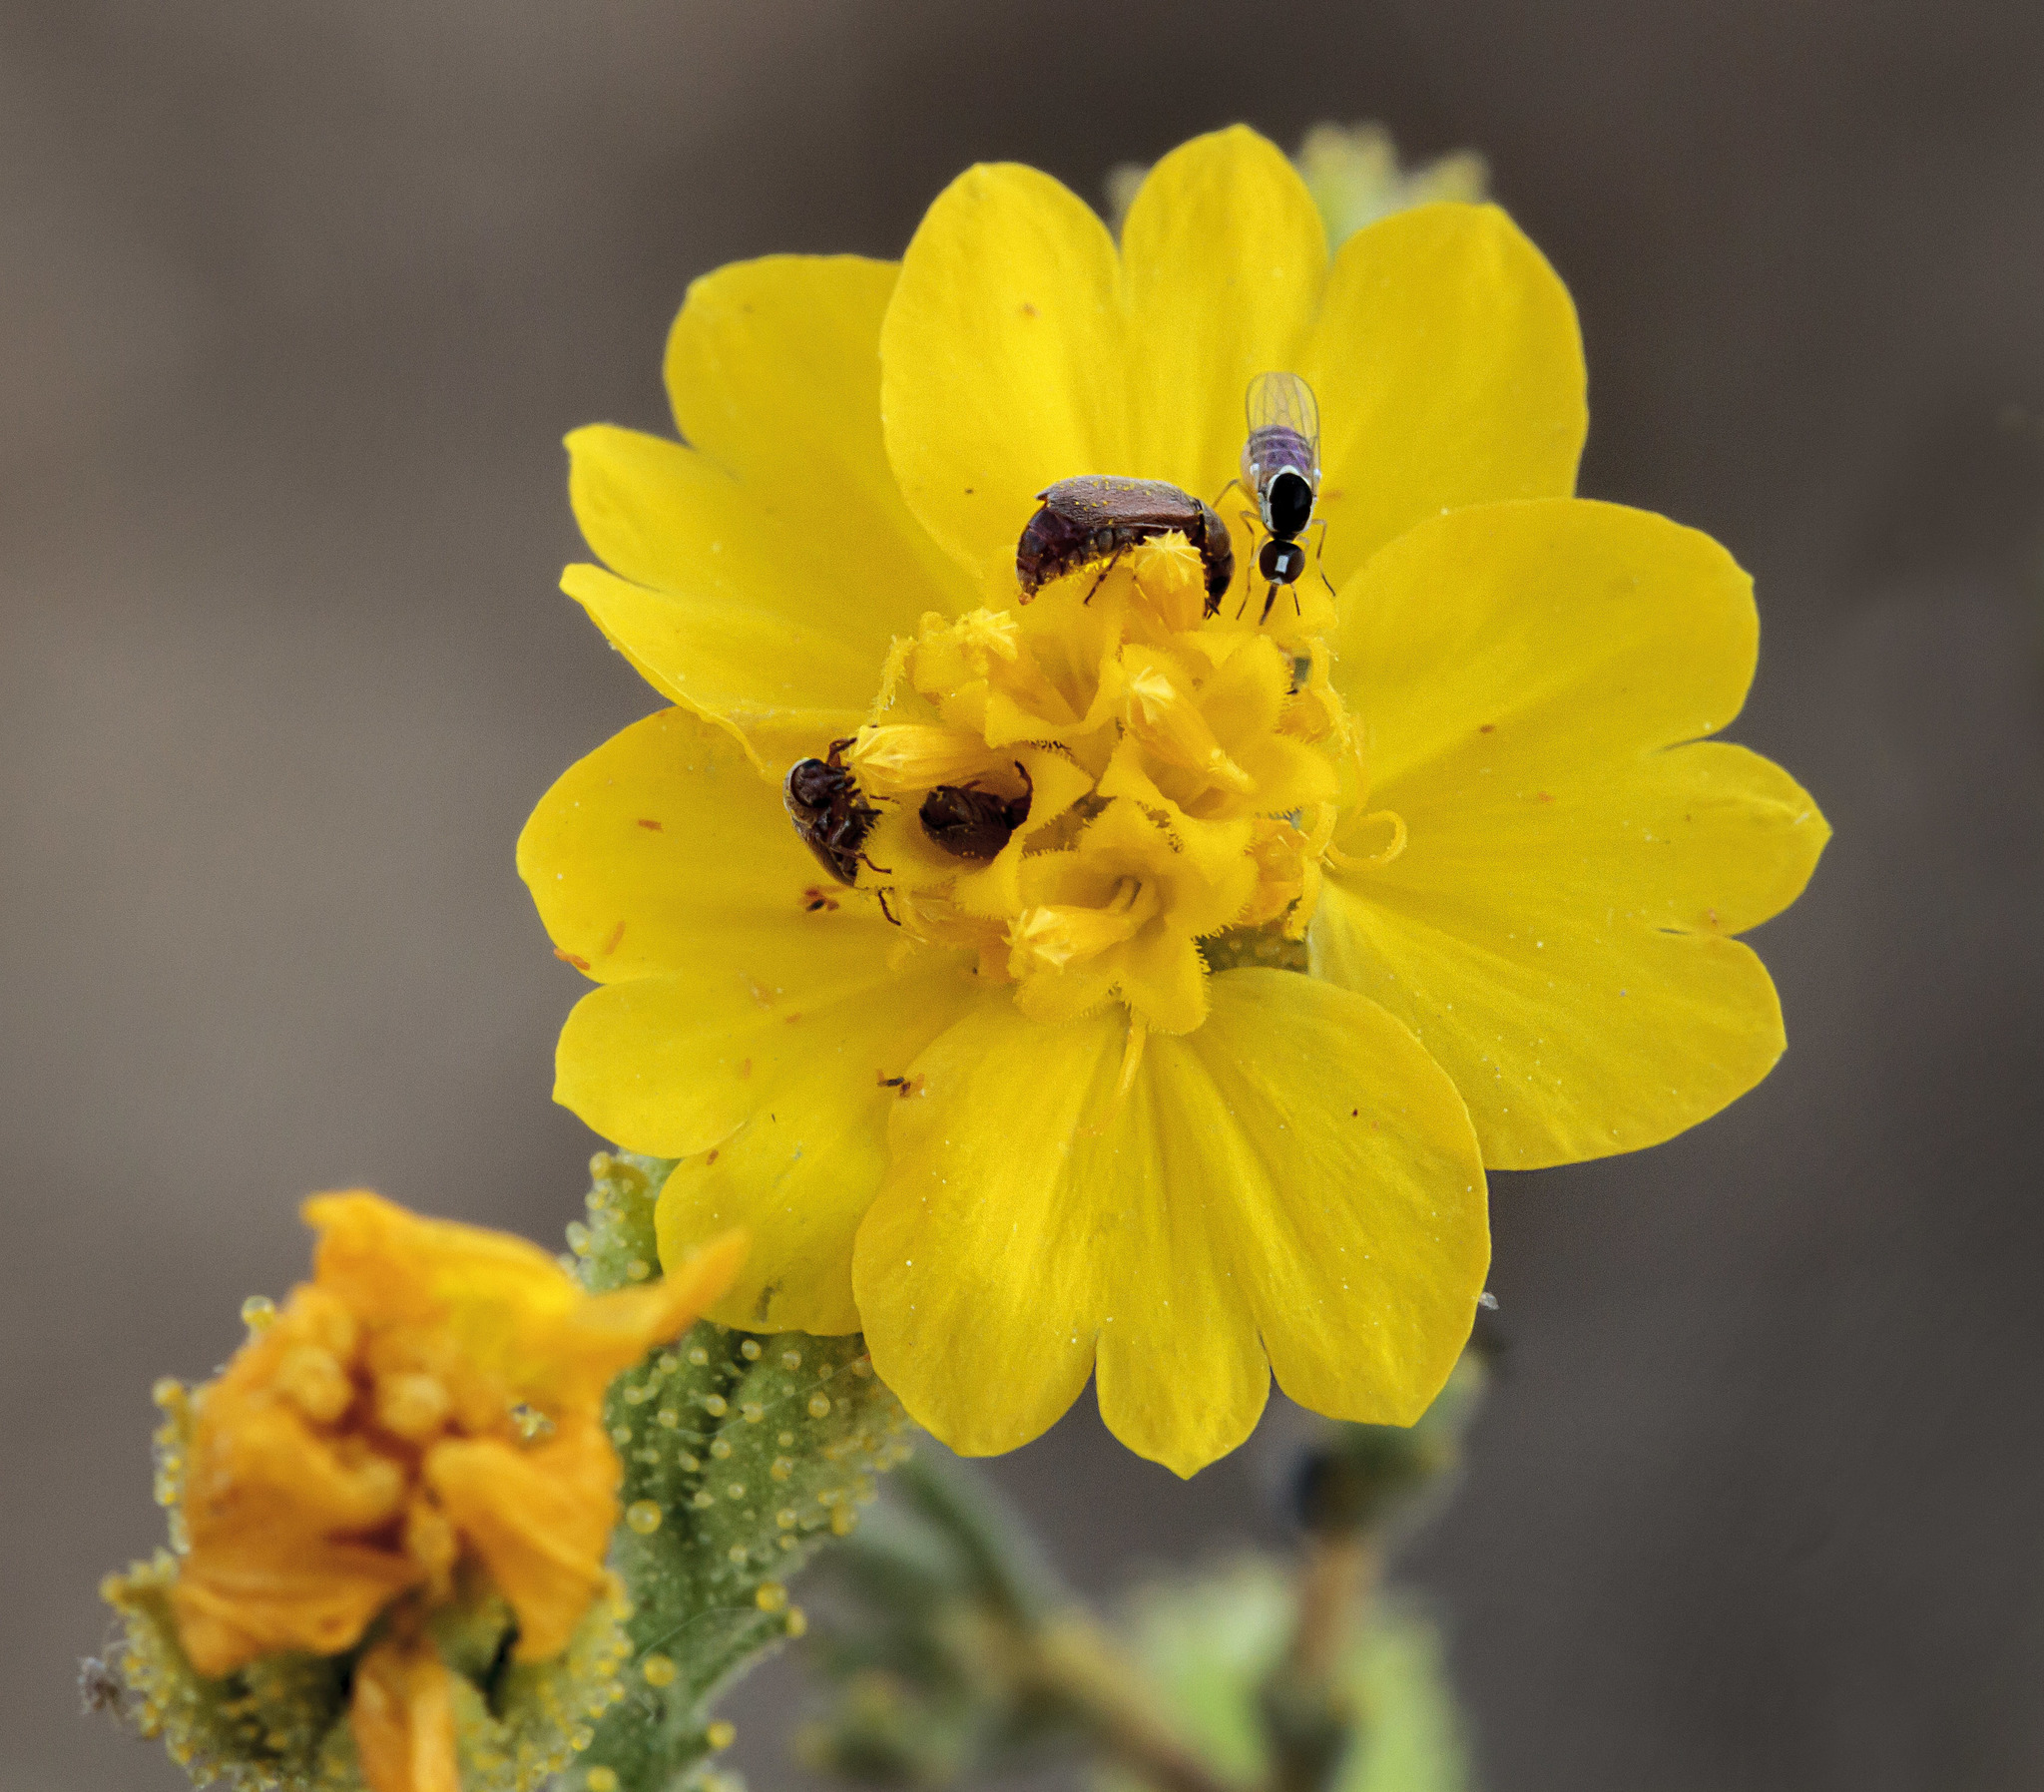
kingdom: Plantae
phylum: Tracheophyta
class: Magnoliopsida
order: Asterales
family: Asteraceae
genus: Holocarpha
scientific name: Holocarpha heermannii
